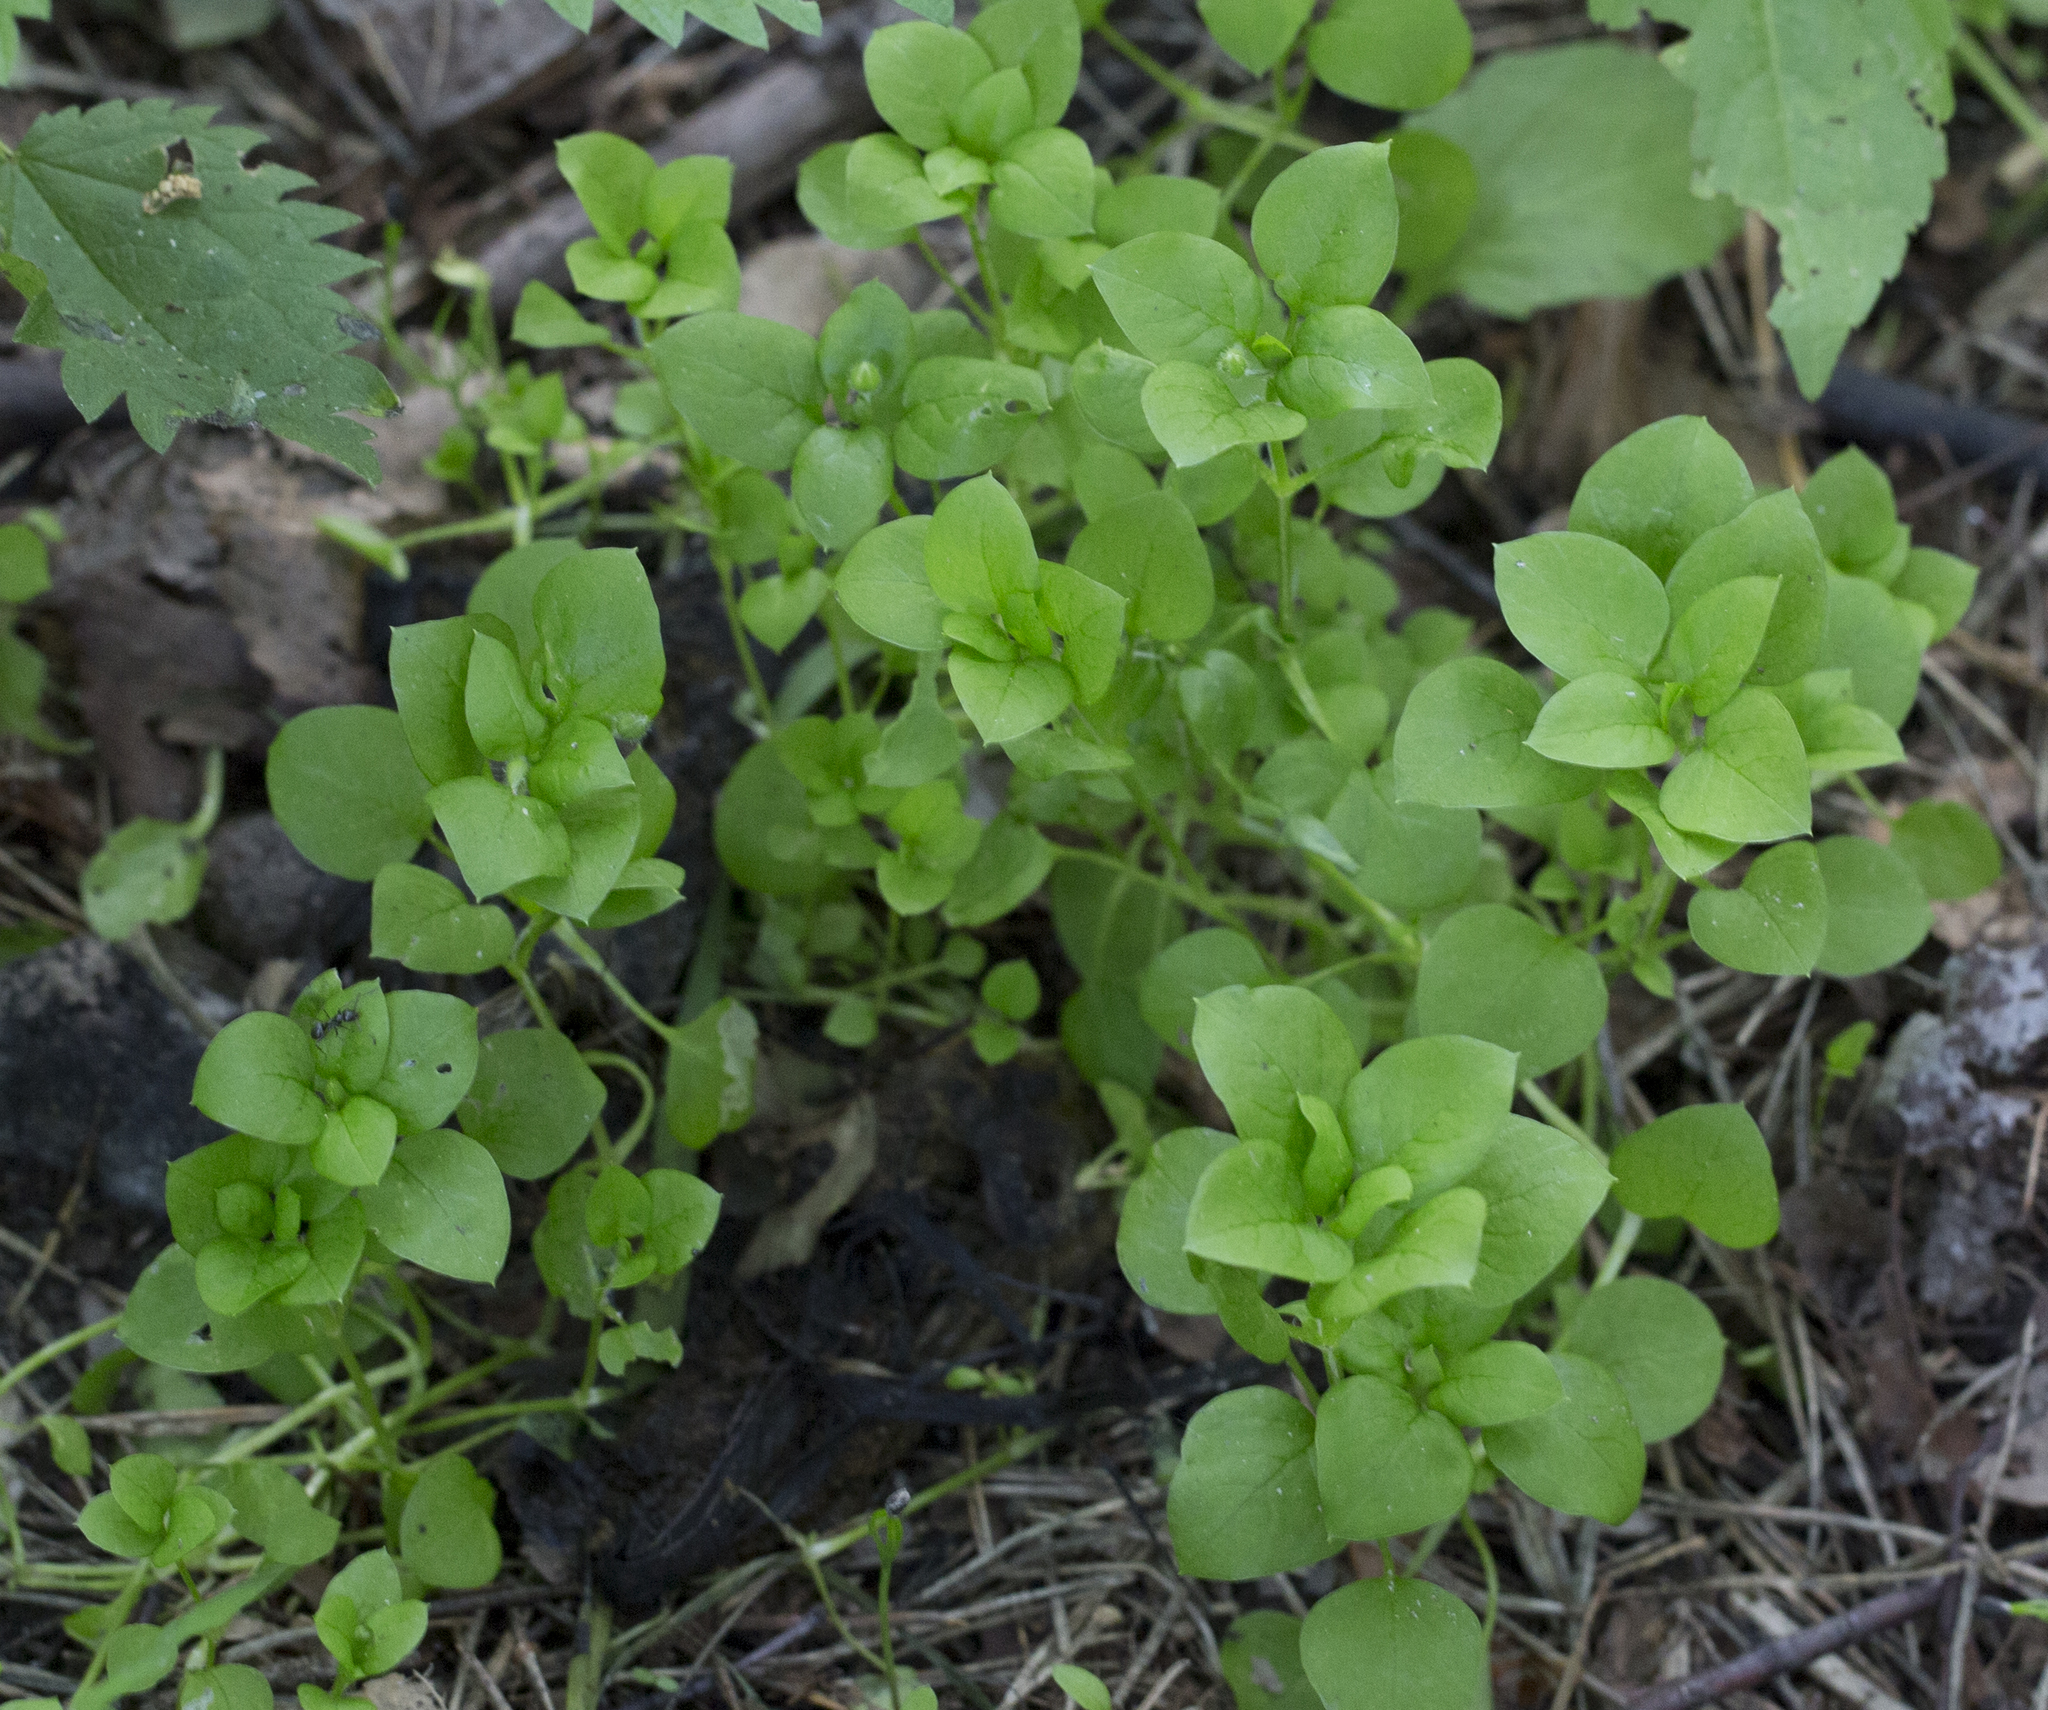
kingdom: Plantae
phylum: Tracheophyta
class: Magnoliopsida
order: Caryophyllales
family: Caryophyllaceae
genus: Stellaria
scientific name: Stellaria media
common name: Common chickweed
